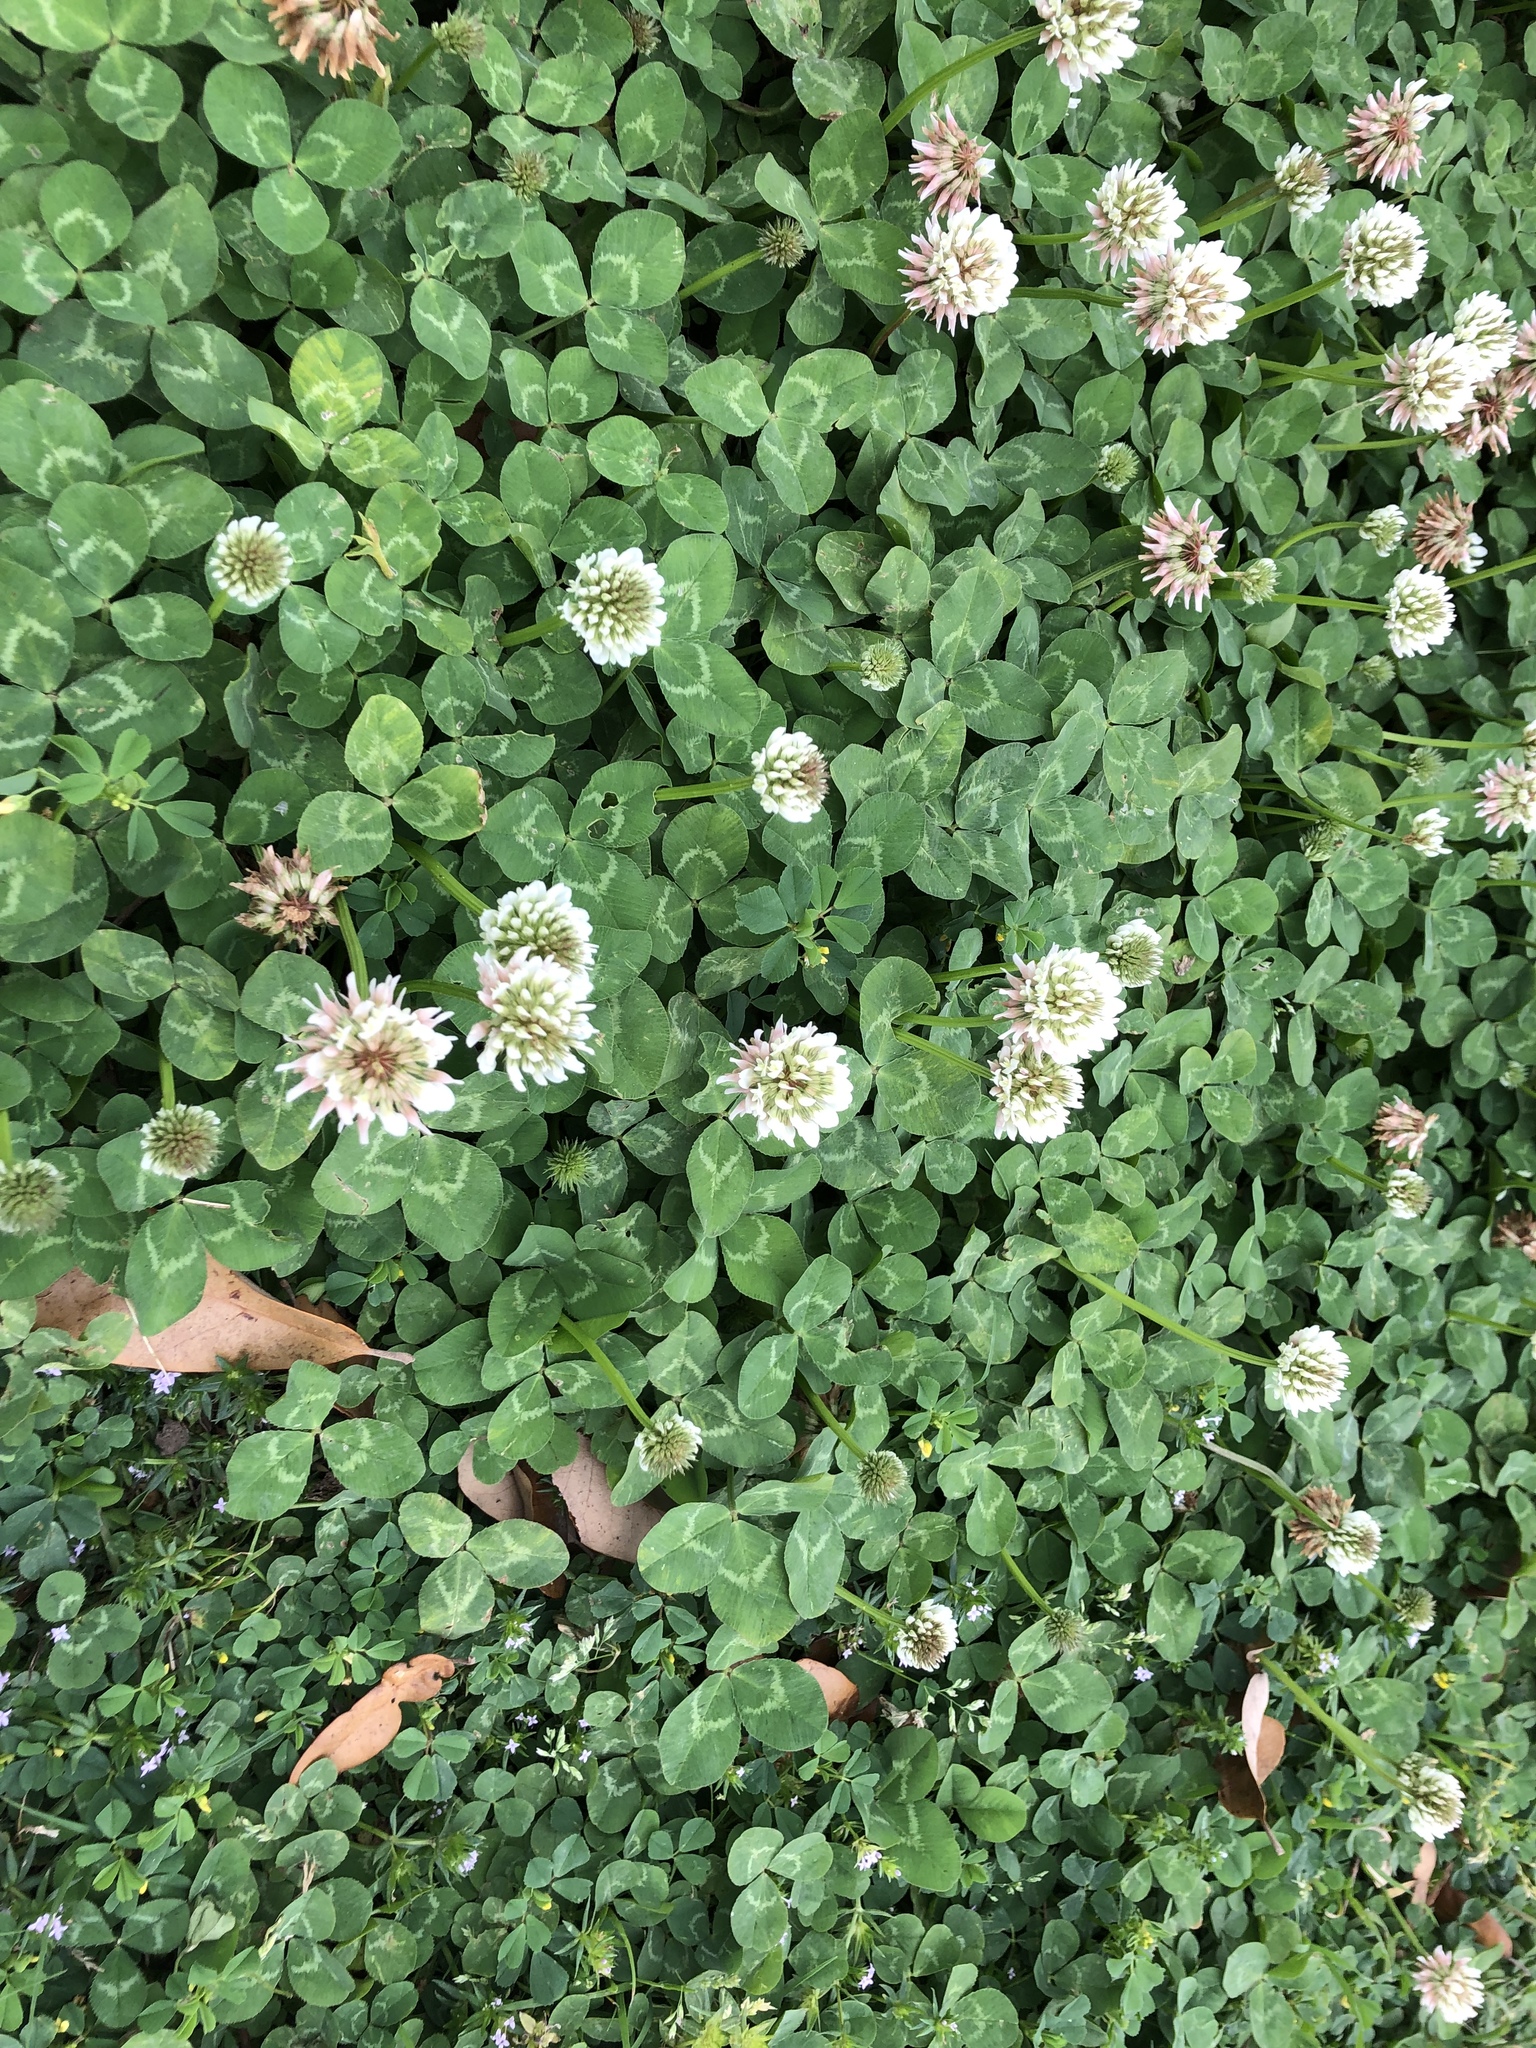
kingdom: Plantae
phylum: Tracheophyta
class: Magnoliopsida
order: Fabales
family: Fabaceae
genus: Trifolium
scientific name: Trifolium repens
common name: White clover
